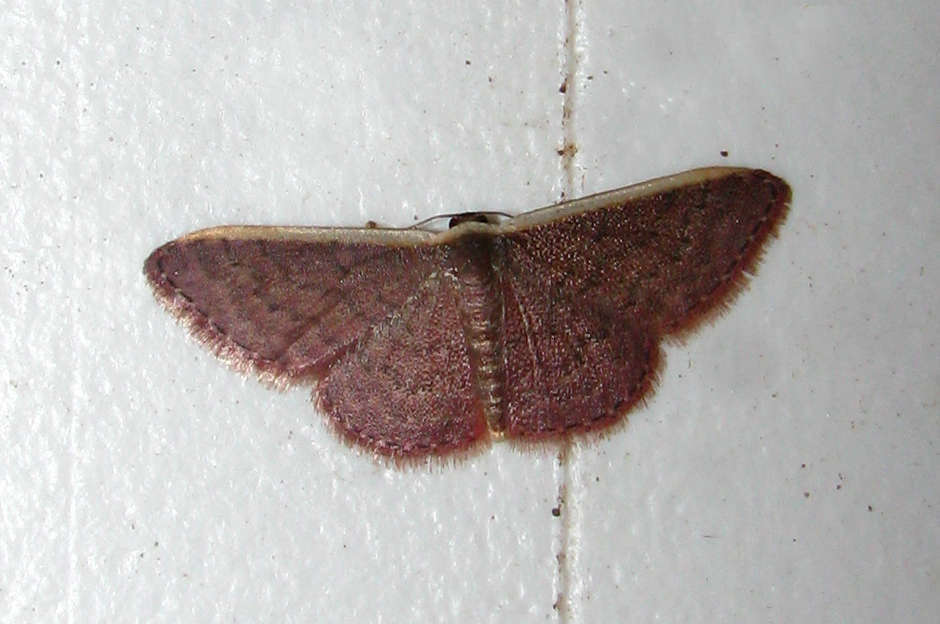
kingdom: Animalia
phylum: Arthropoda
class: Insecta
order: Lepidoptera
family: Geometridae
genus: Idaea
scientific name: Idaea inversata
